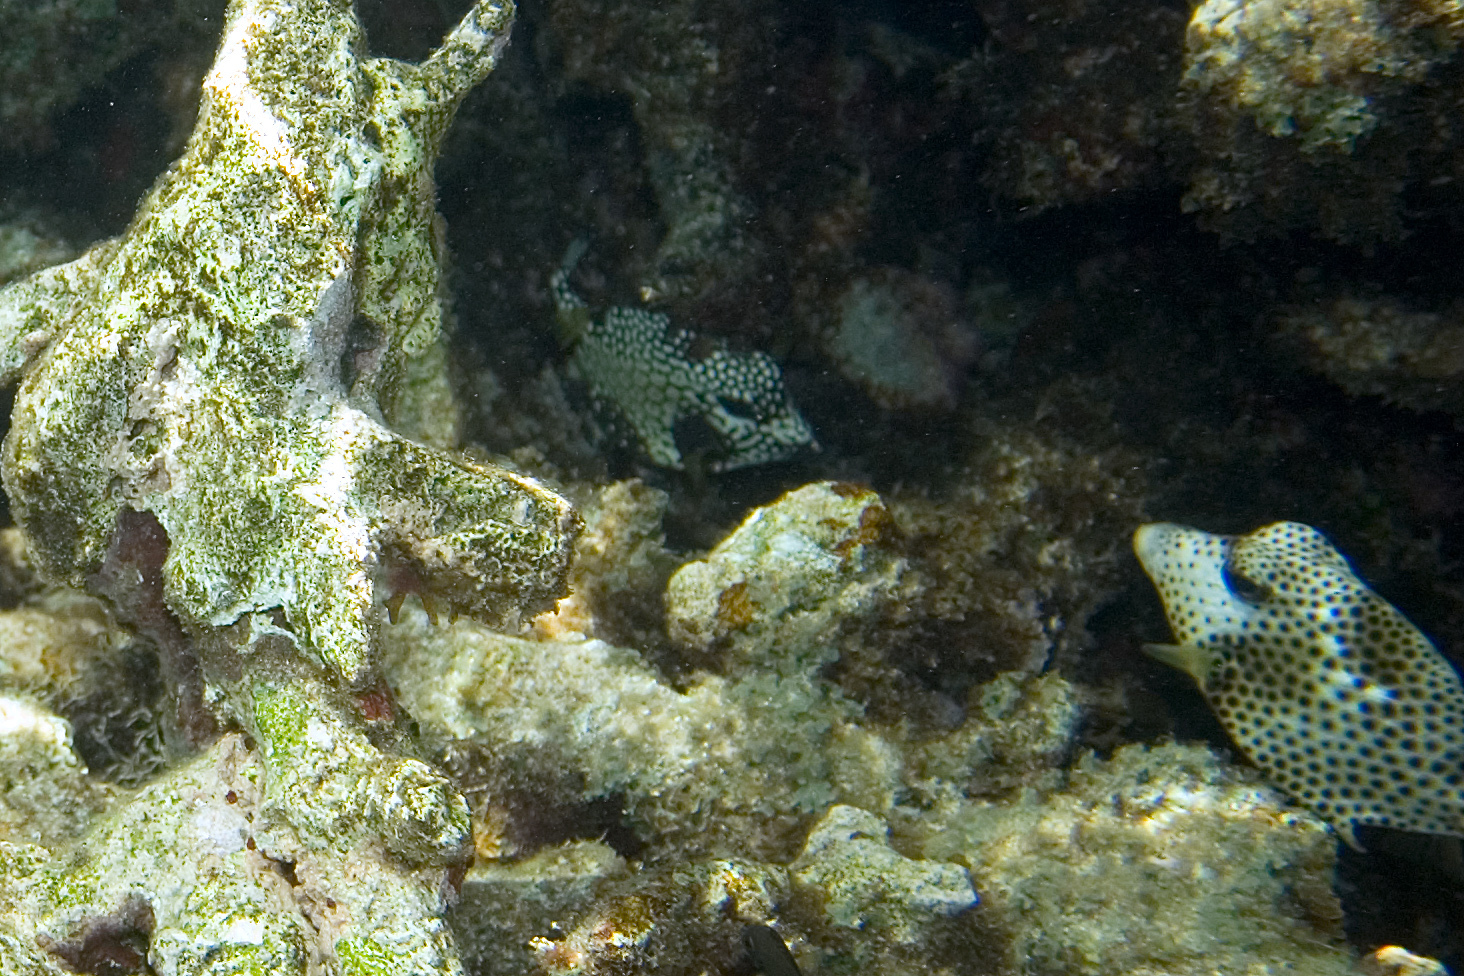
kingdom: Animalia
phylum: Chordata
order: Tetraodontiformes
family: Ostraciidae
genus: Lactophrys
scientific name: Lactophrys triqueter
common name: Smooth trunkfish
